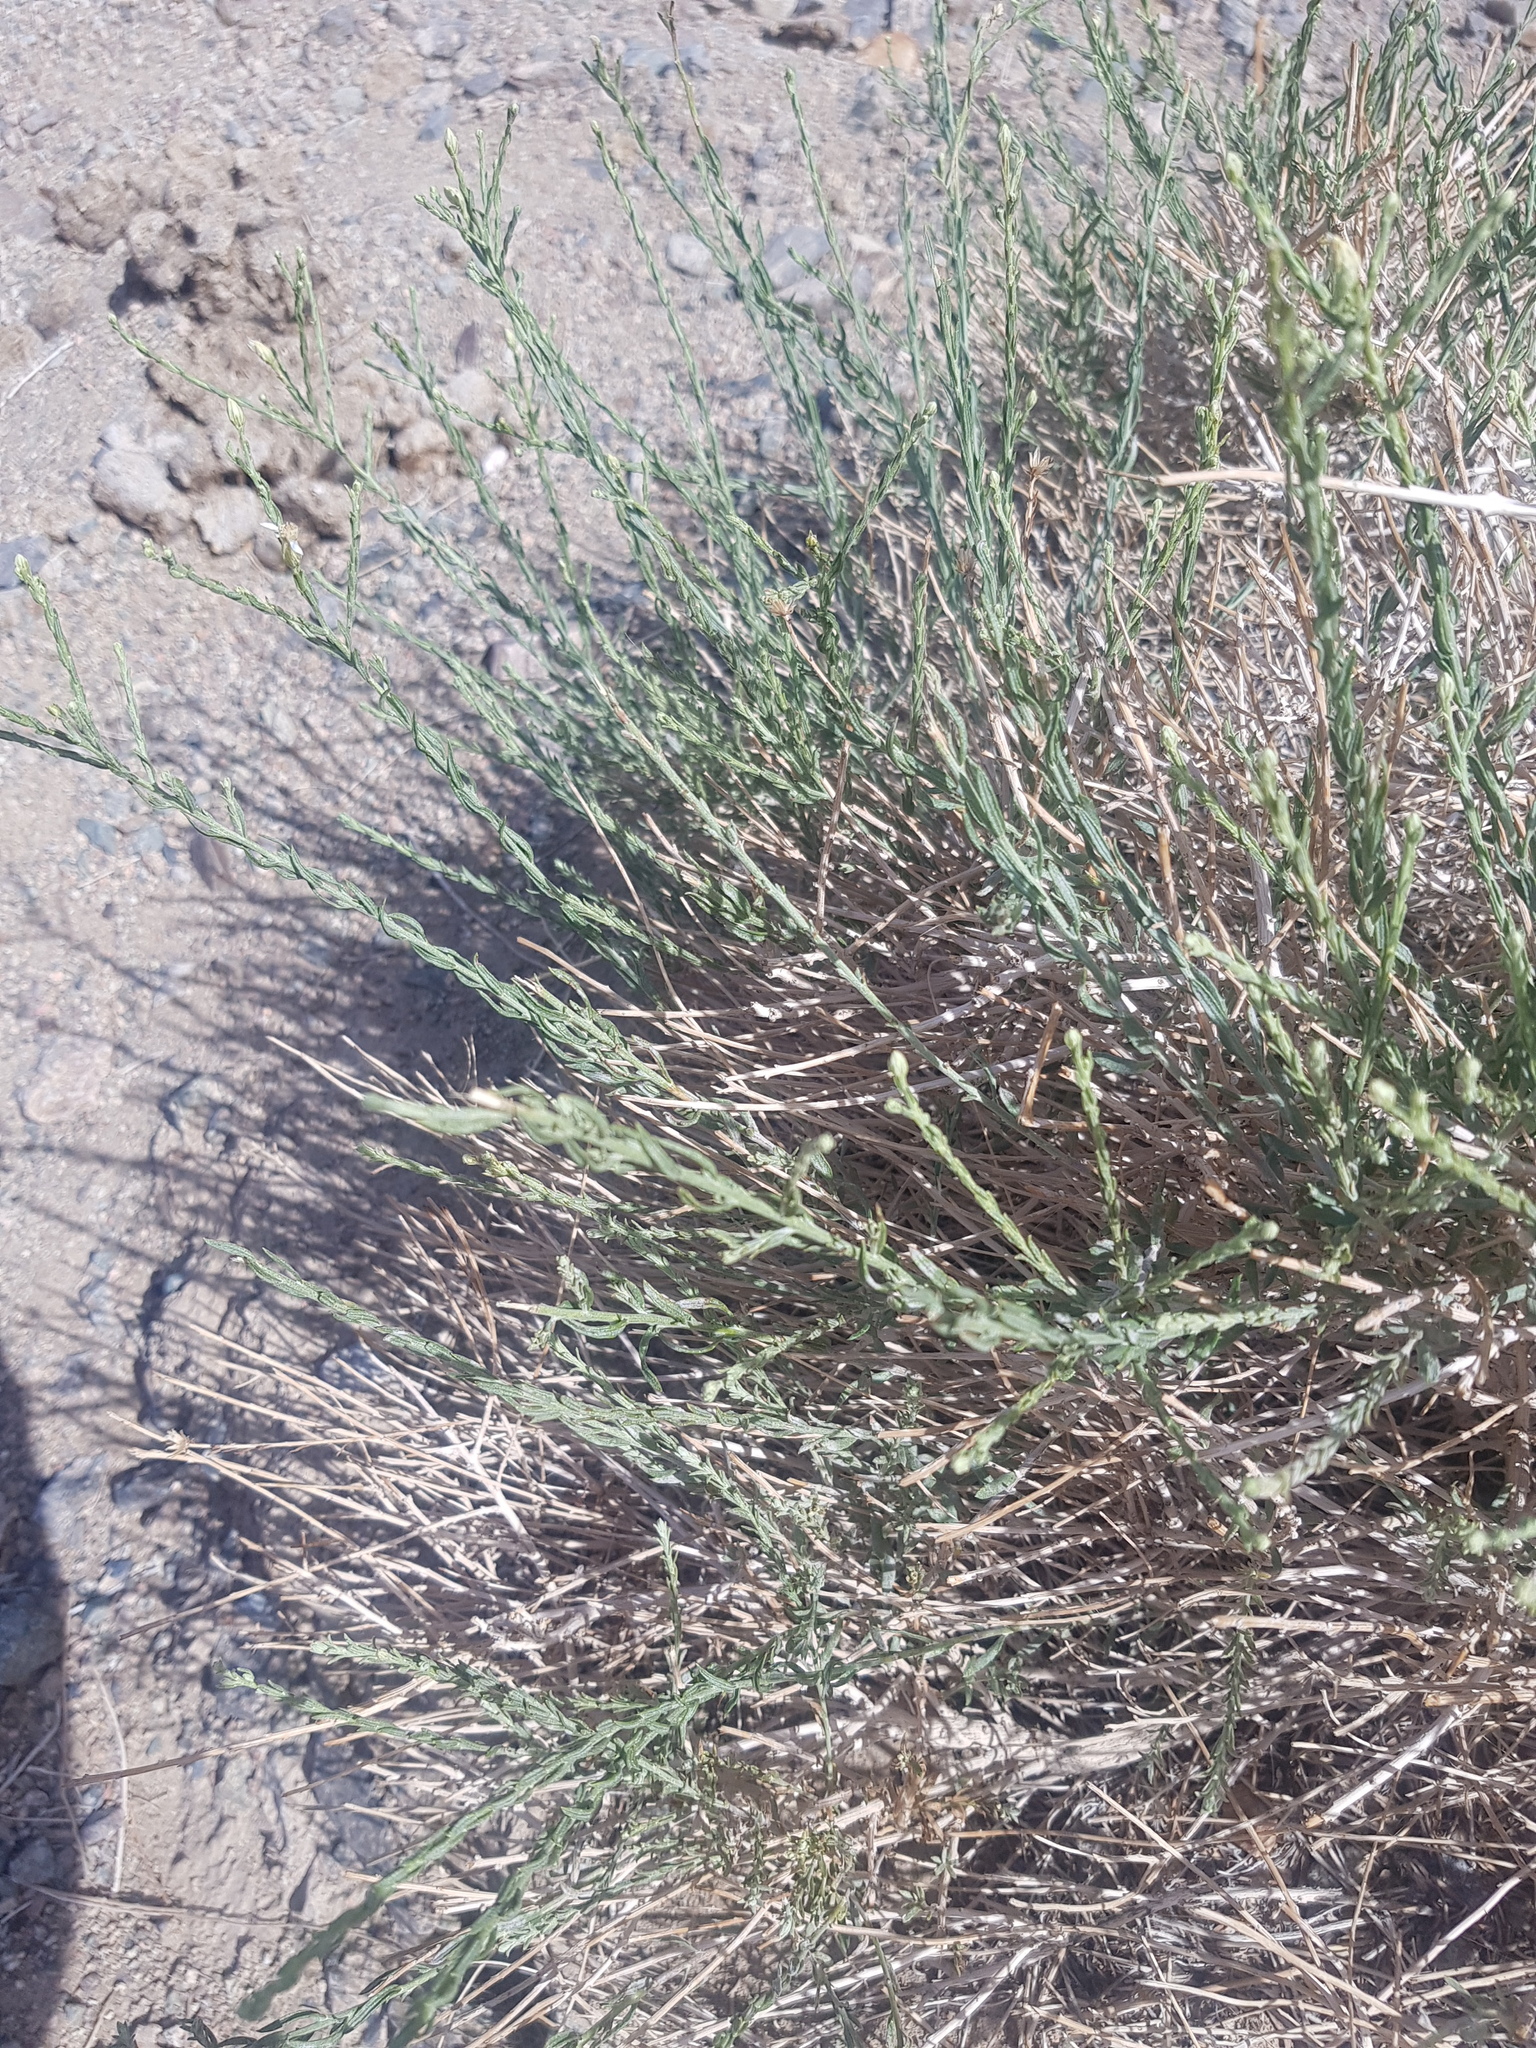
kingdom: Plantae
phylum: Tracheophyta
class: Magnoliopsida
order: Asterales
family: Asteraceae
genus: Asterothamnus
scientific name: Asterothamnus centraliasiaticus
